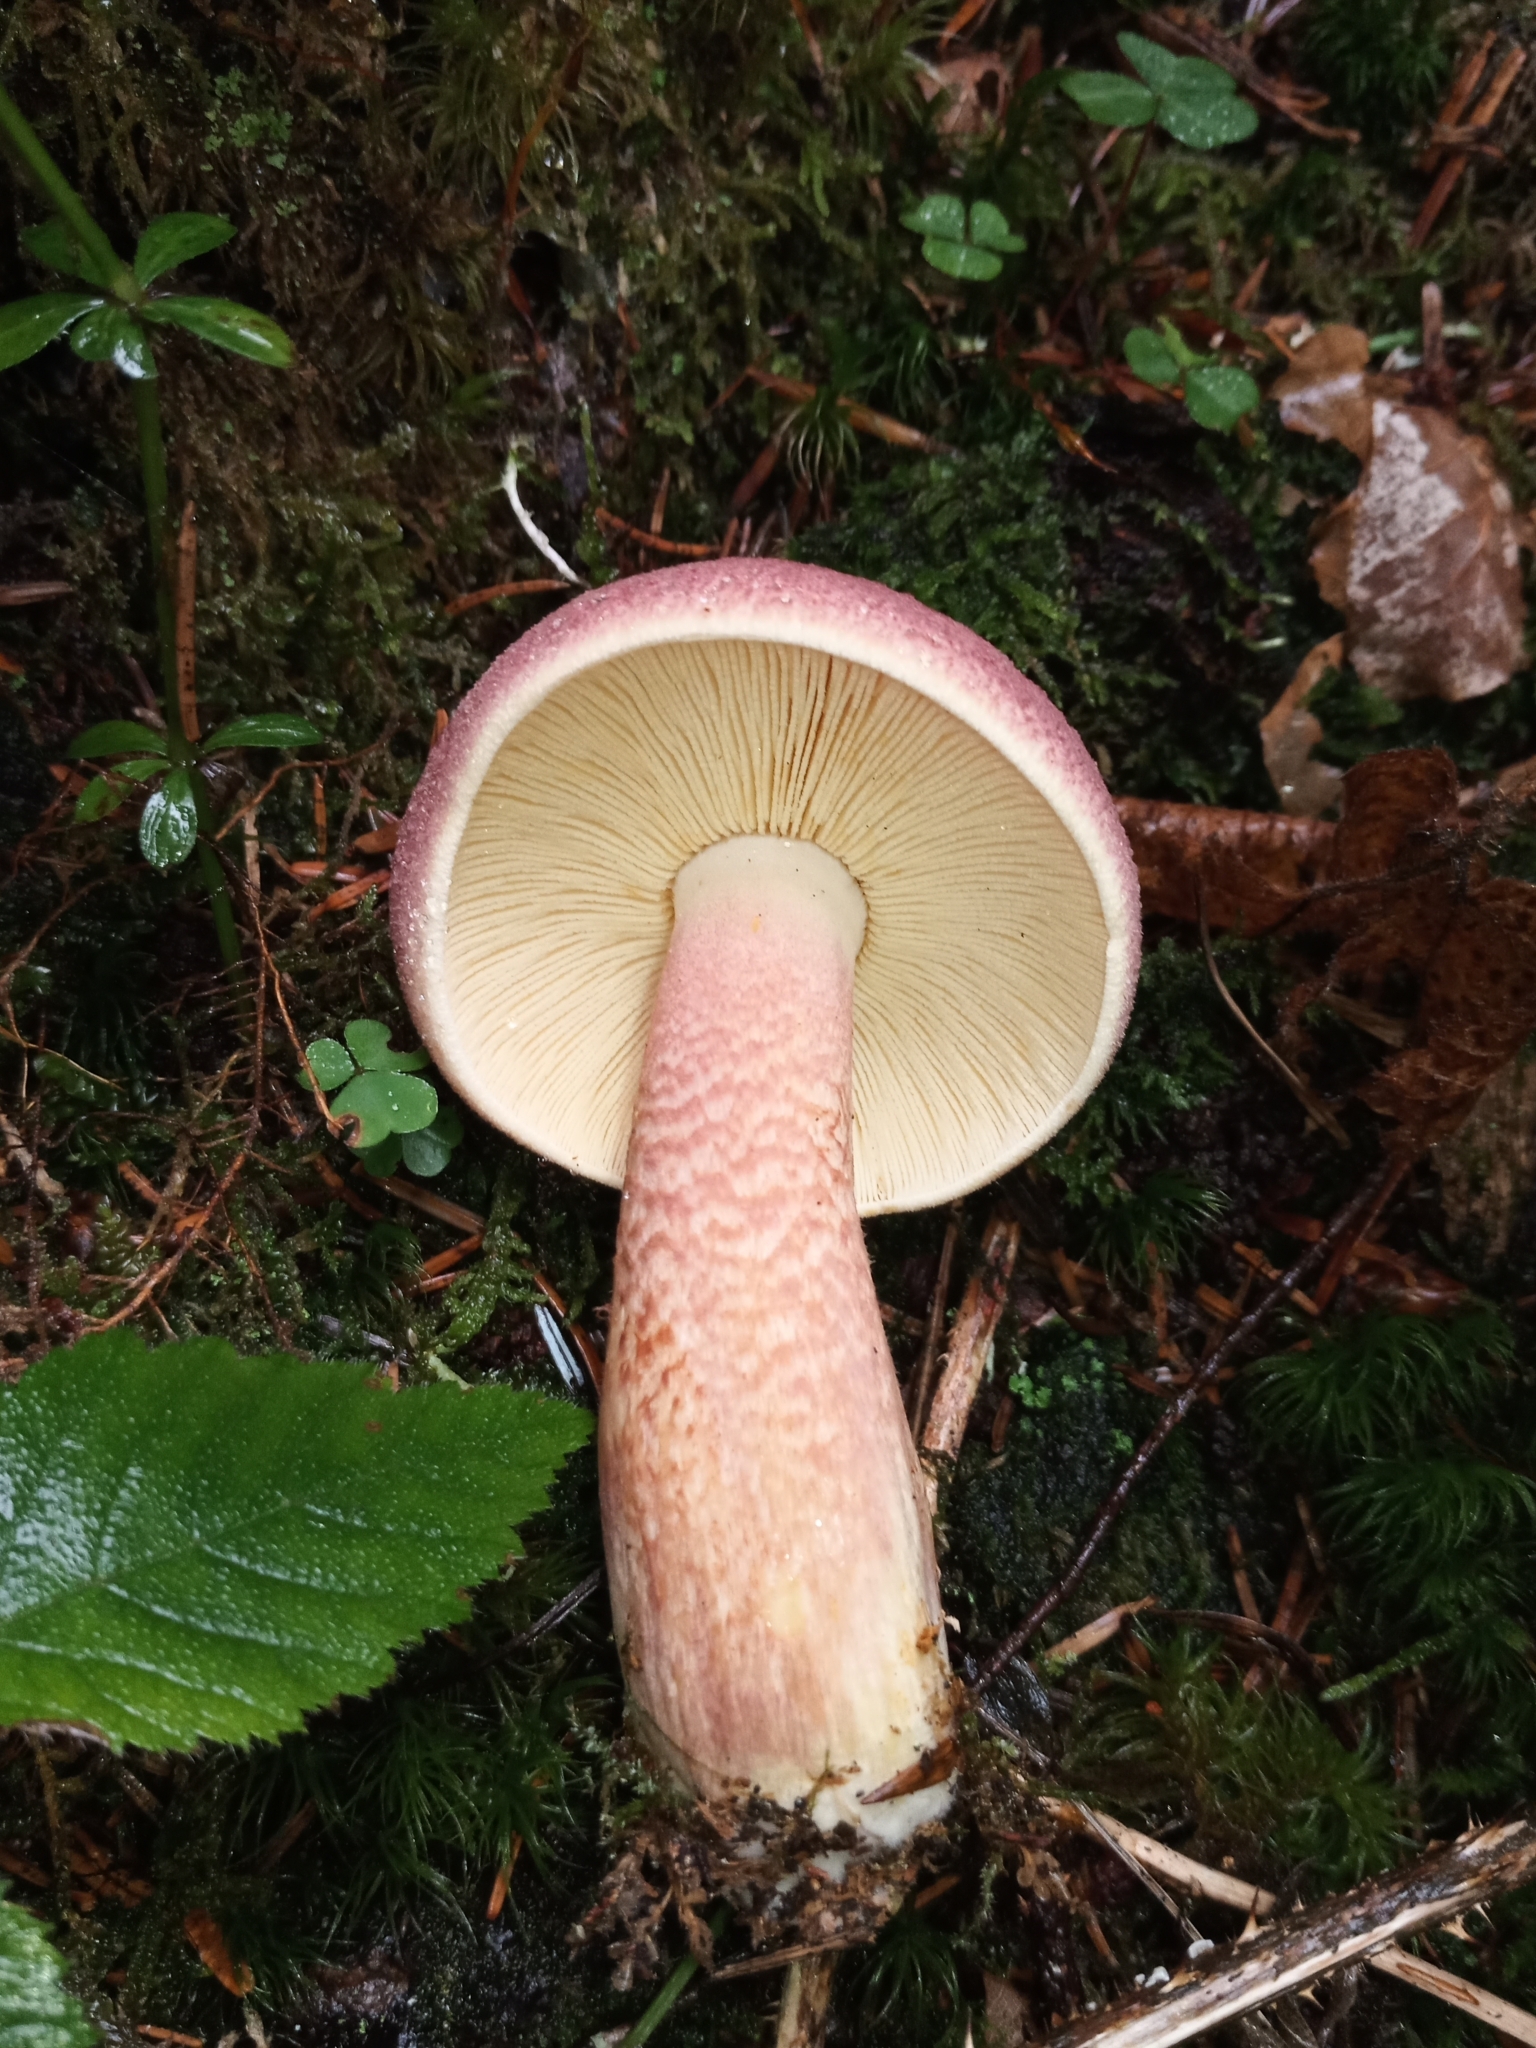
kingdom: Fungi
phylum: Basidiomycota
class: Agaricomycetes
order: Agaricales
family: Tricholomataceae
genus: Tricholomopsis
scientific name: Tricholomopsis rutilans
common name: Plums and custard
